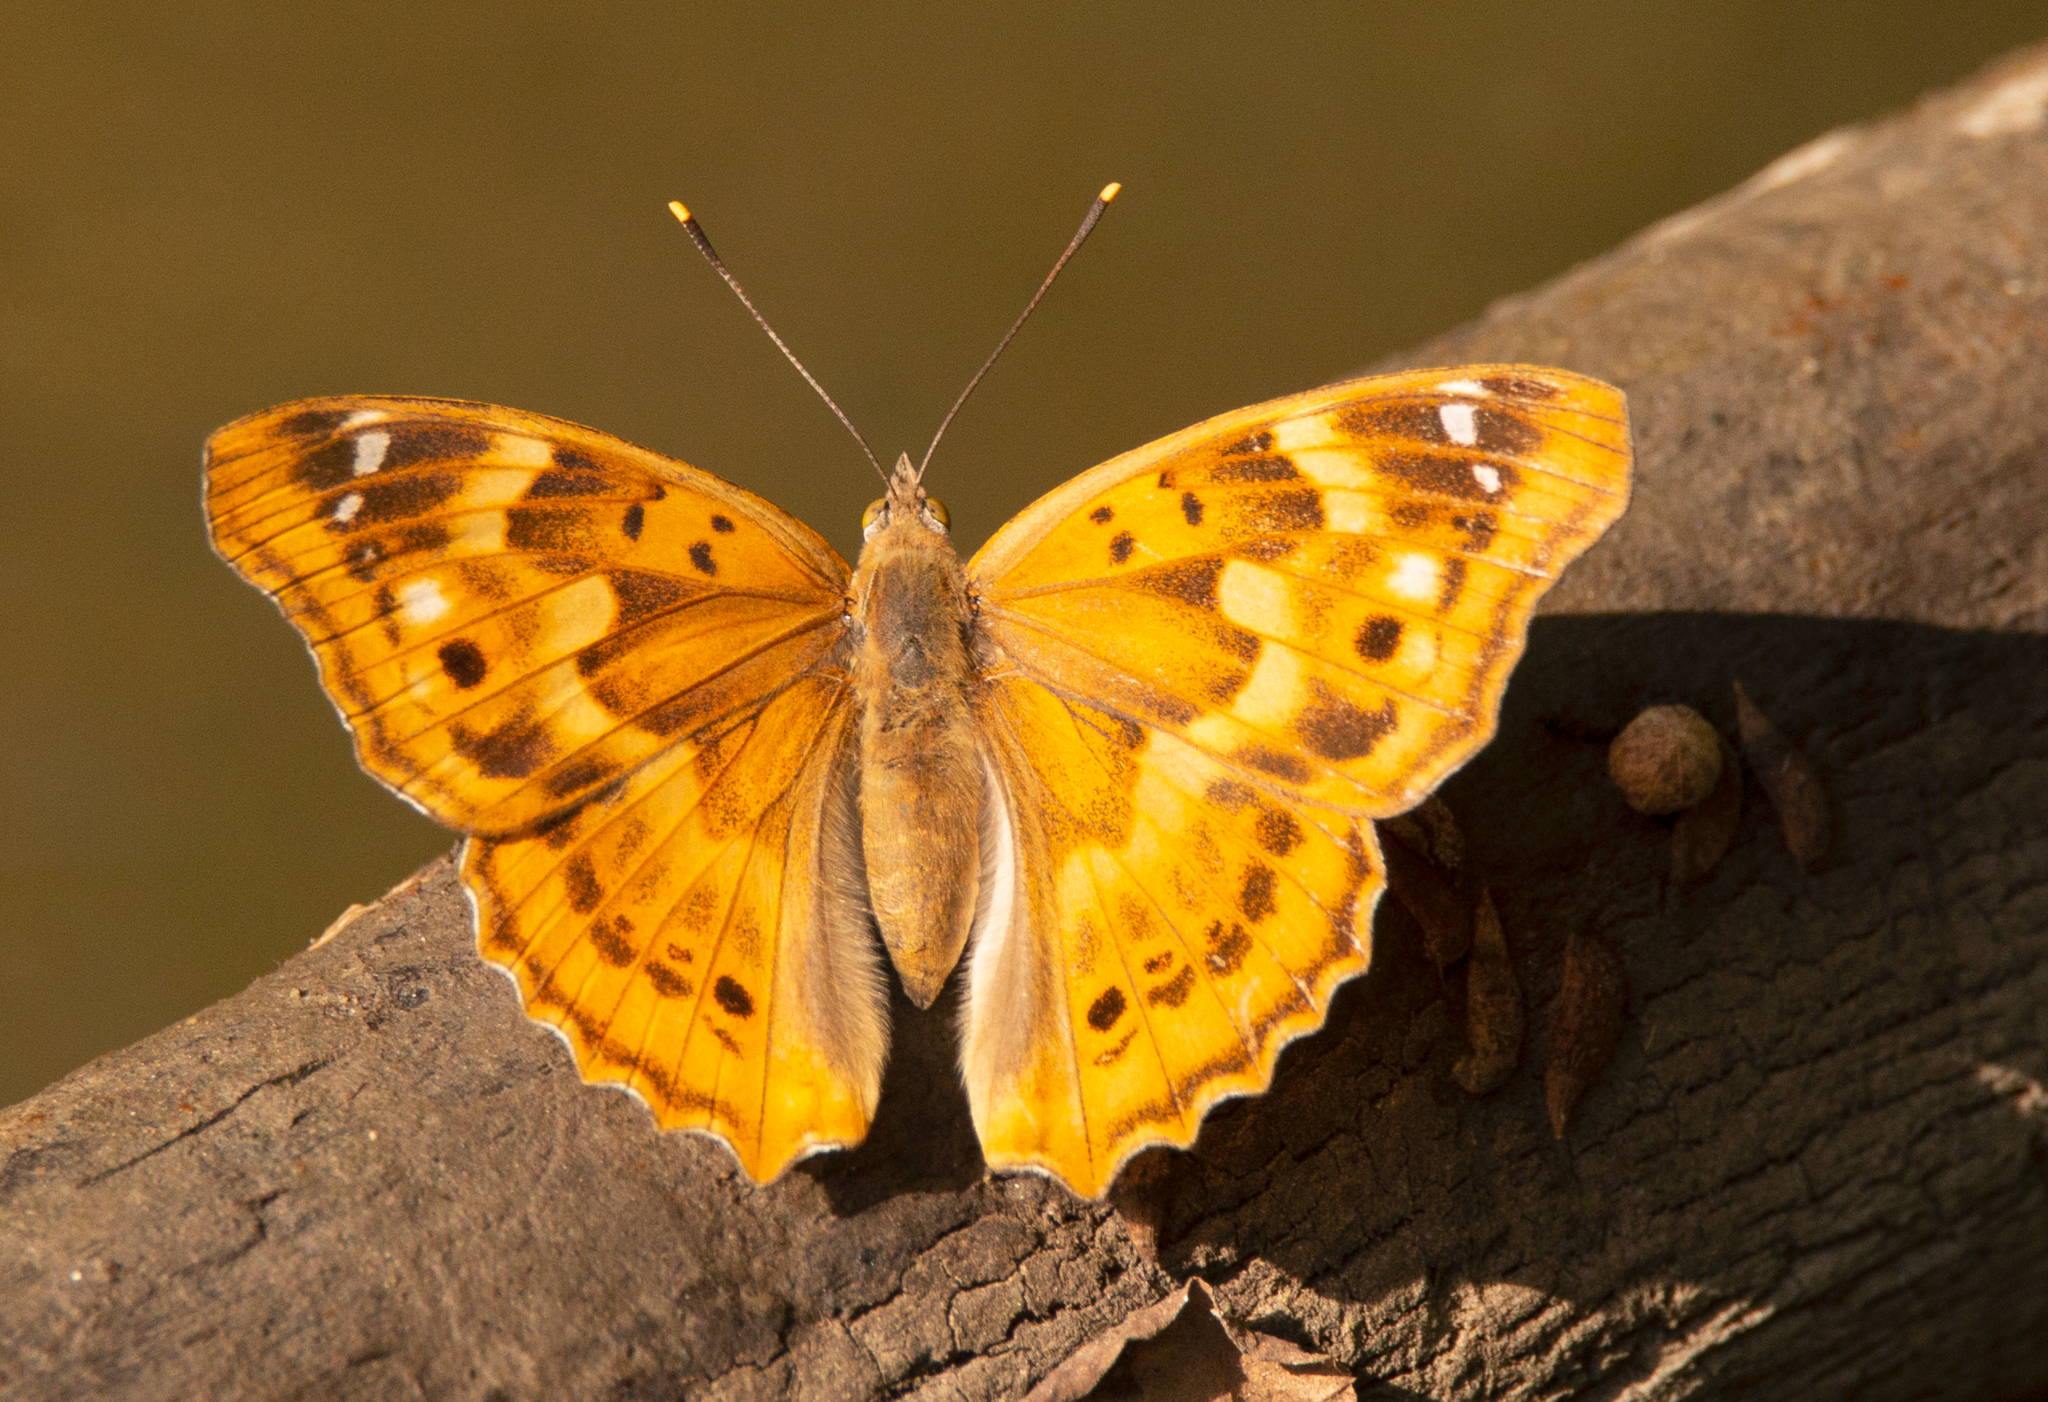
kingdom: Animalia
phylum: Arthropoda
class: Insecta
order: Lepidoptera
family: Nymphalidae
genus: Apatura
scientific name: Apatura ilia
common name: Lesser purple emperor
